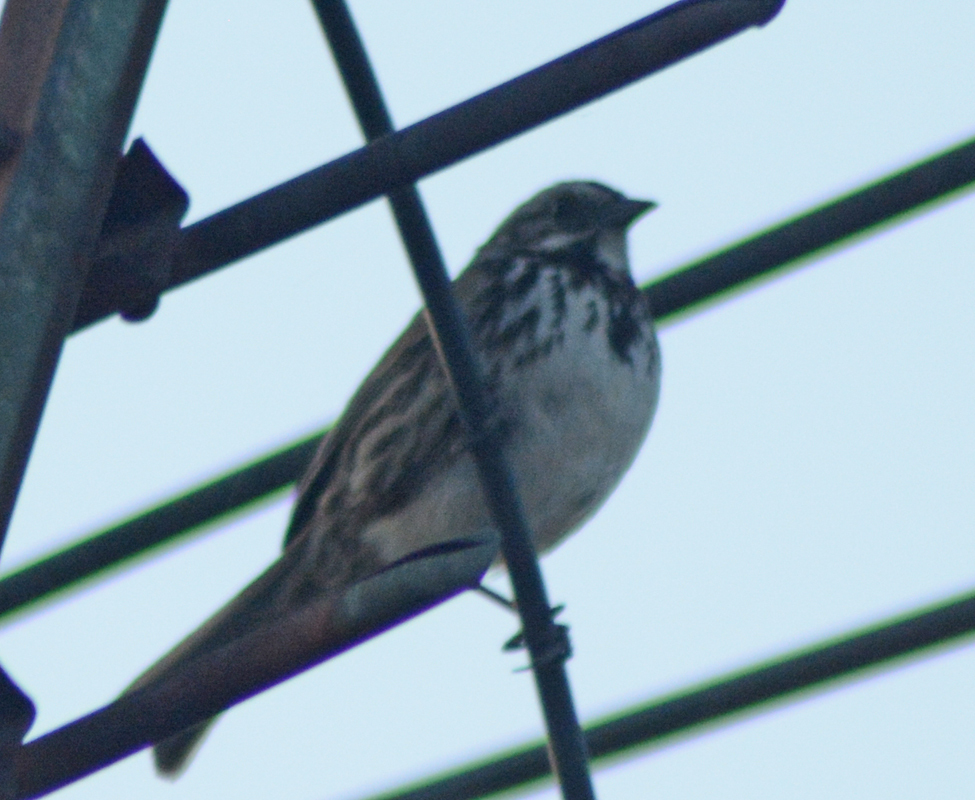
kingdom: Animalia
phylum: Chordata
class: Aves
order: Passeriformes
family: Passerellidae
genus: Melospiza
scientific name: Melospiza melodia
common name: Song sparrow
